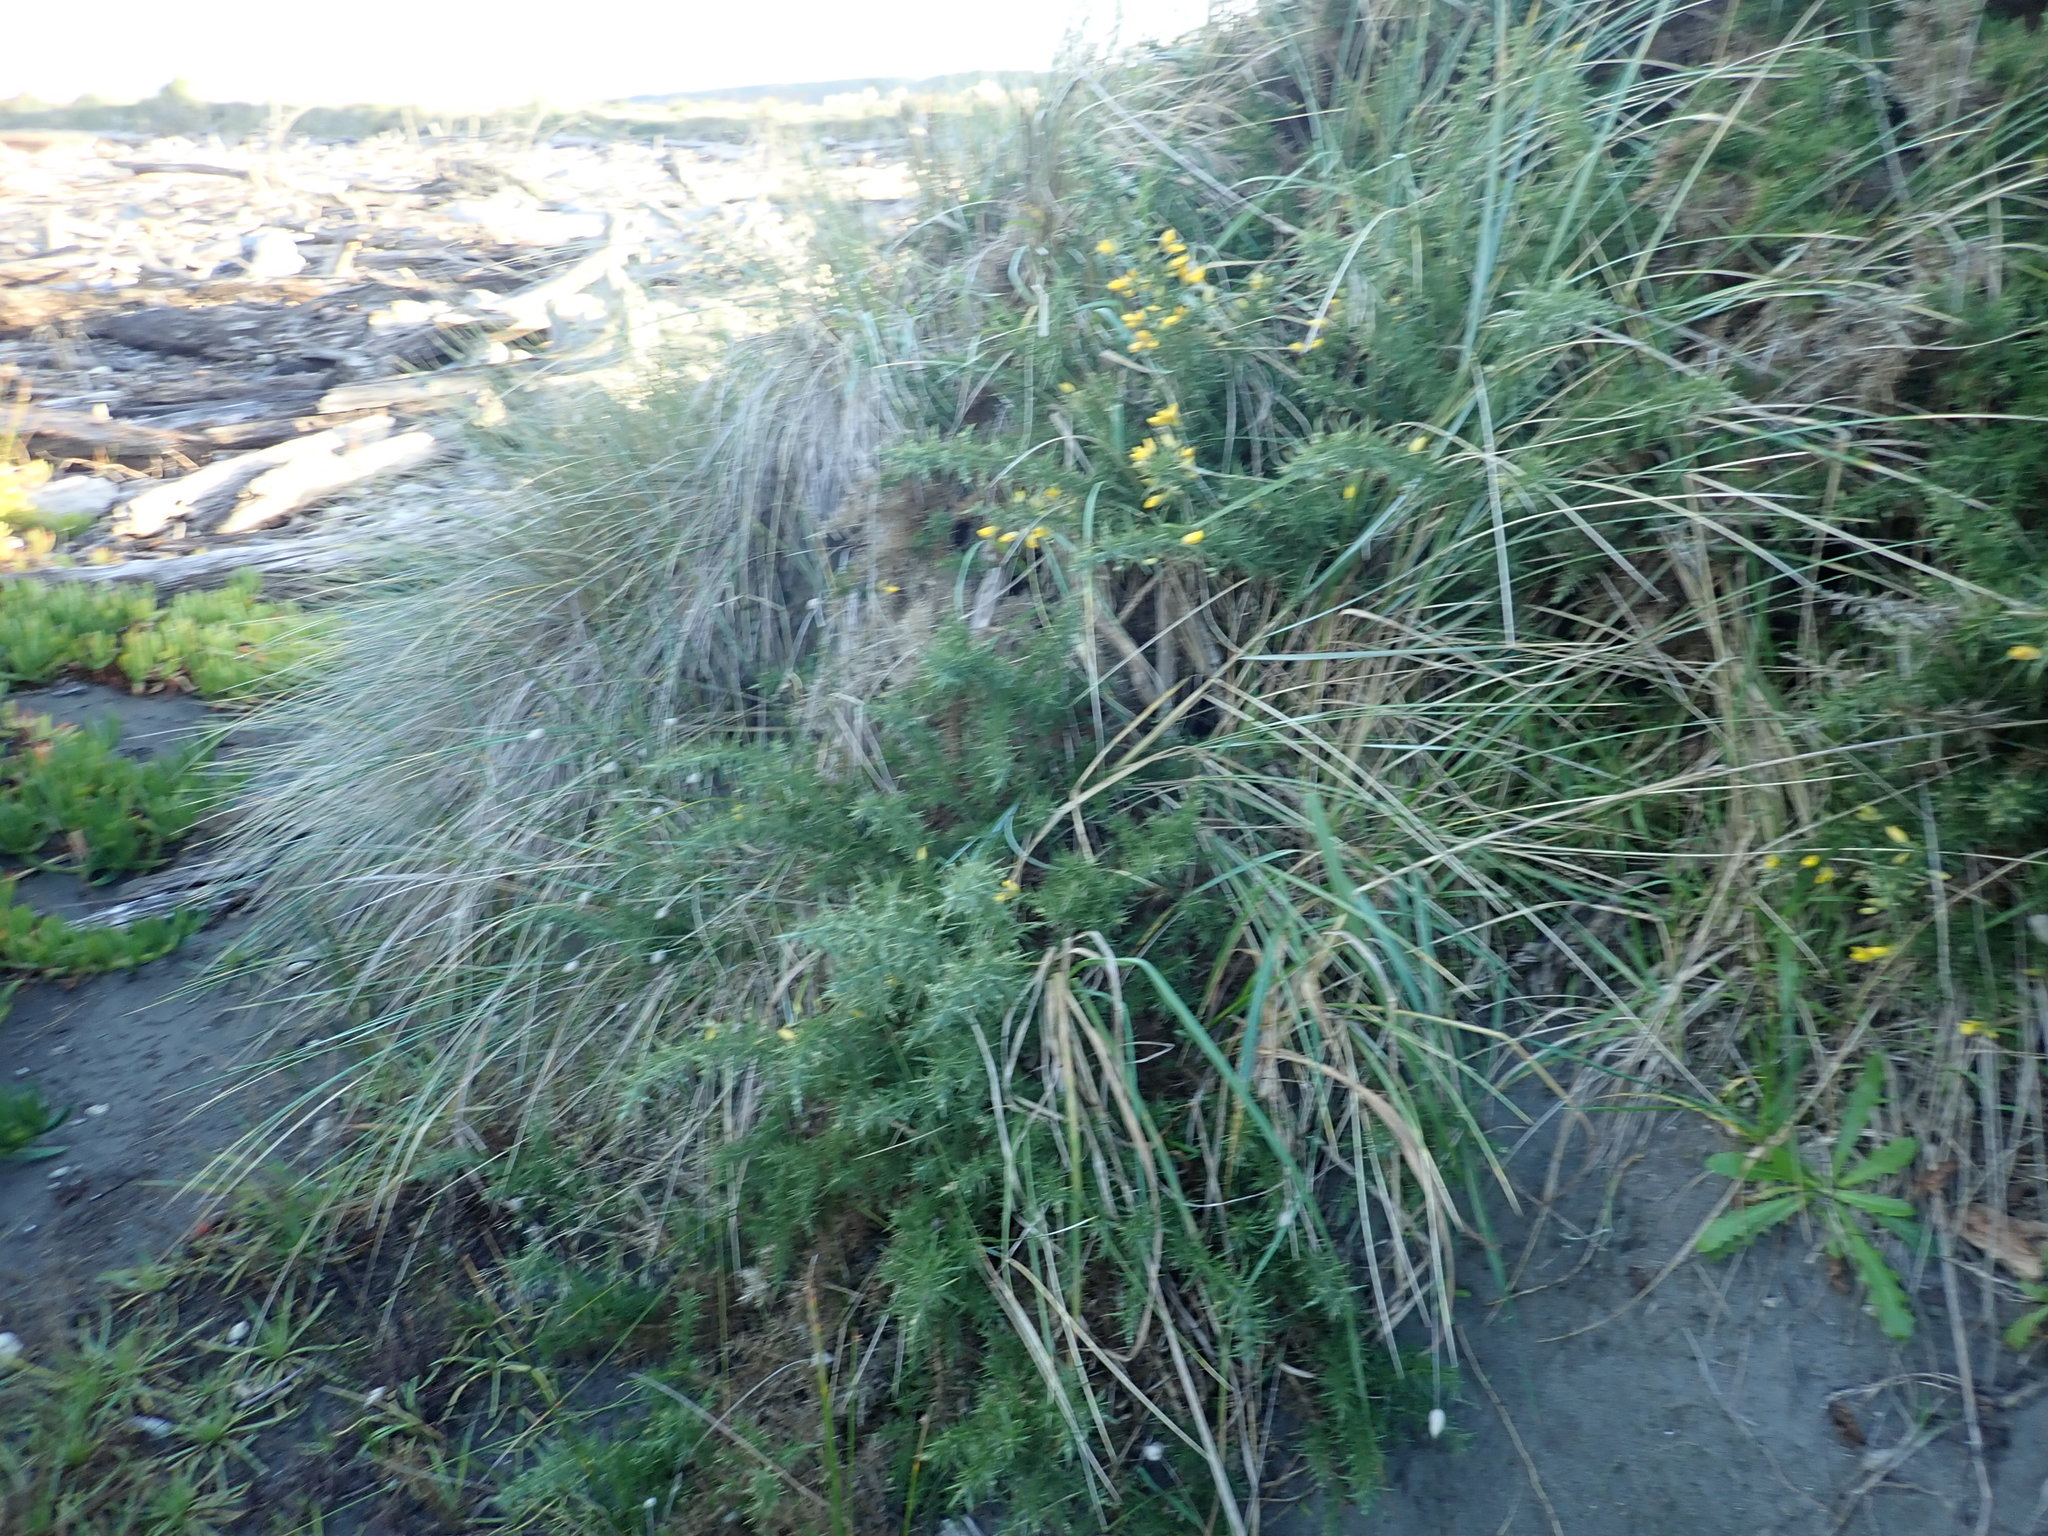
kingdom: Plantae
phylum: Tracheophyta
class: Magnoliopsida
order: Fabales
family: Fabaceae
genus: Ulex
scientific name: Ulex europaeus
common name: Common gorse
